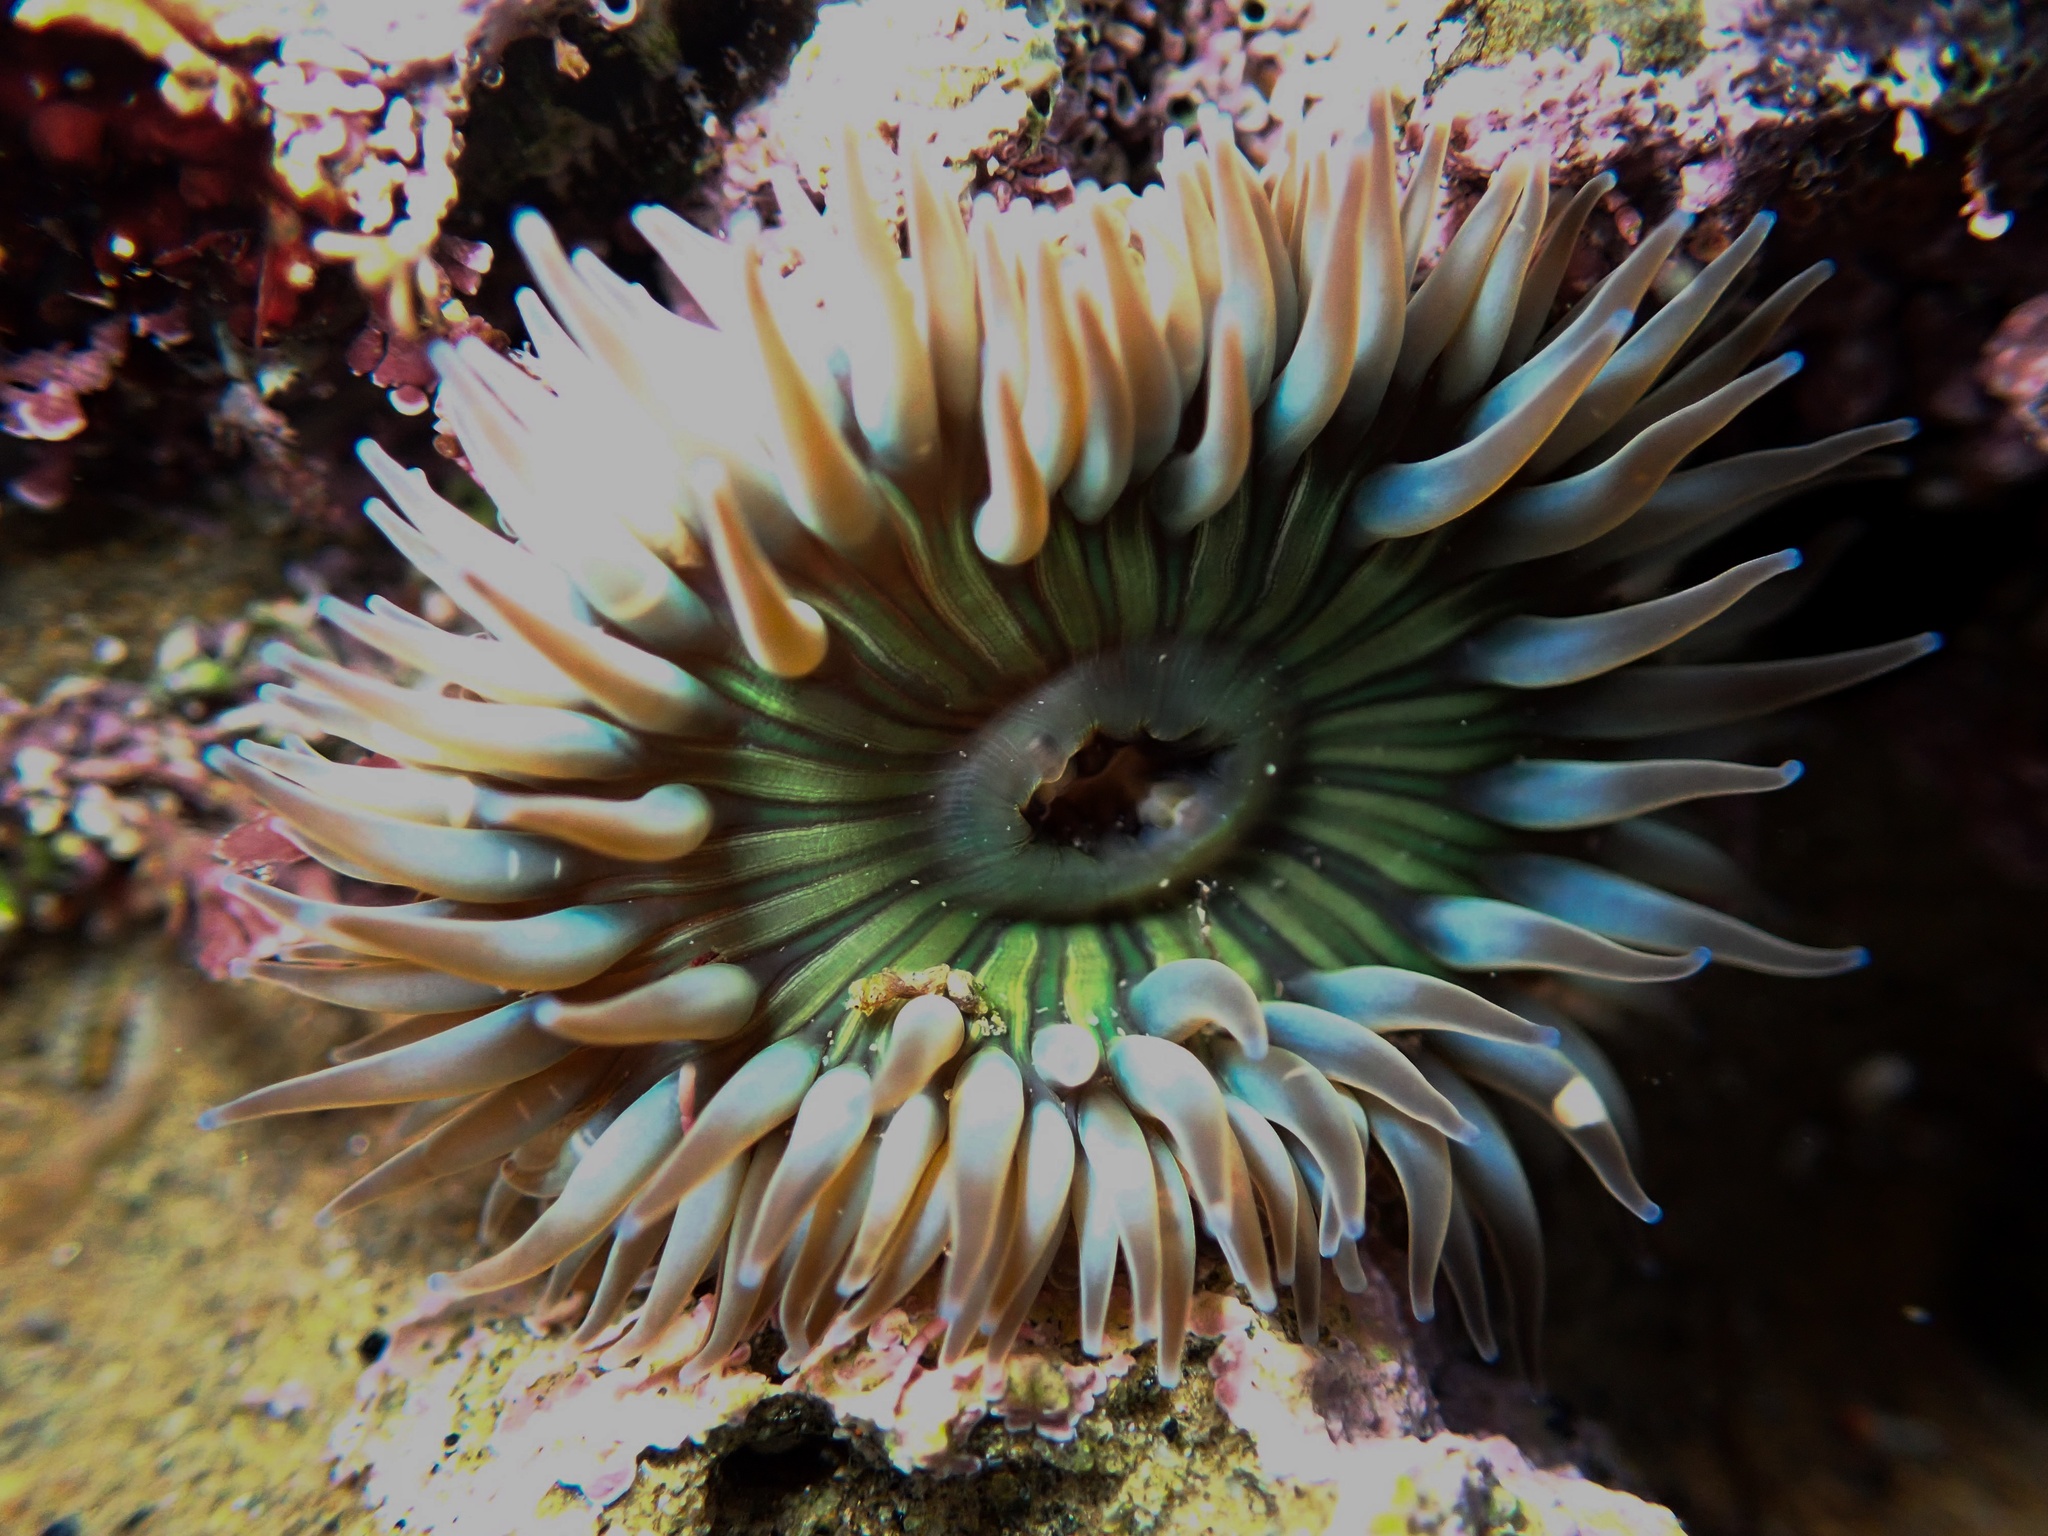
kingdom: Animalia
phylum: Cnidaria
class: Anthozoa
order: Actiniaria
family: Actiniidae
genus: Anthopleura
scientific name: Anthopleura sola
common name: Sun anemone
